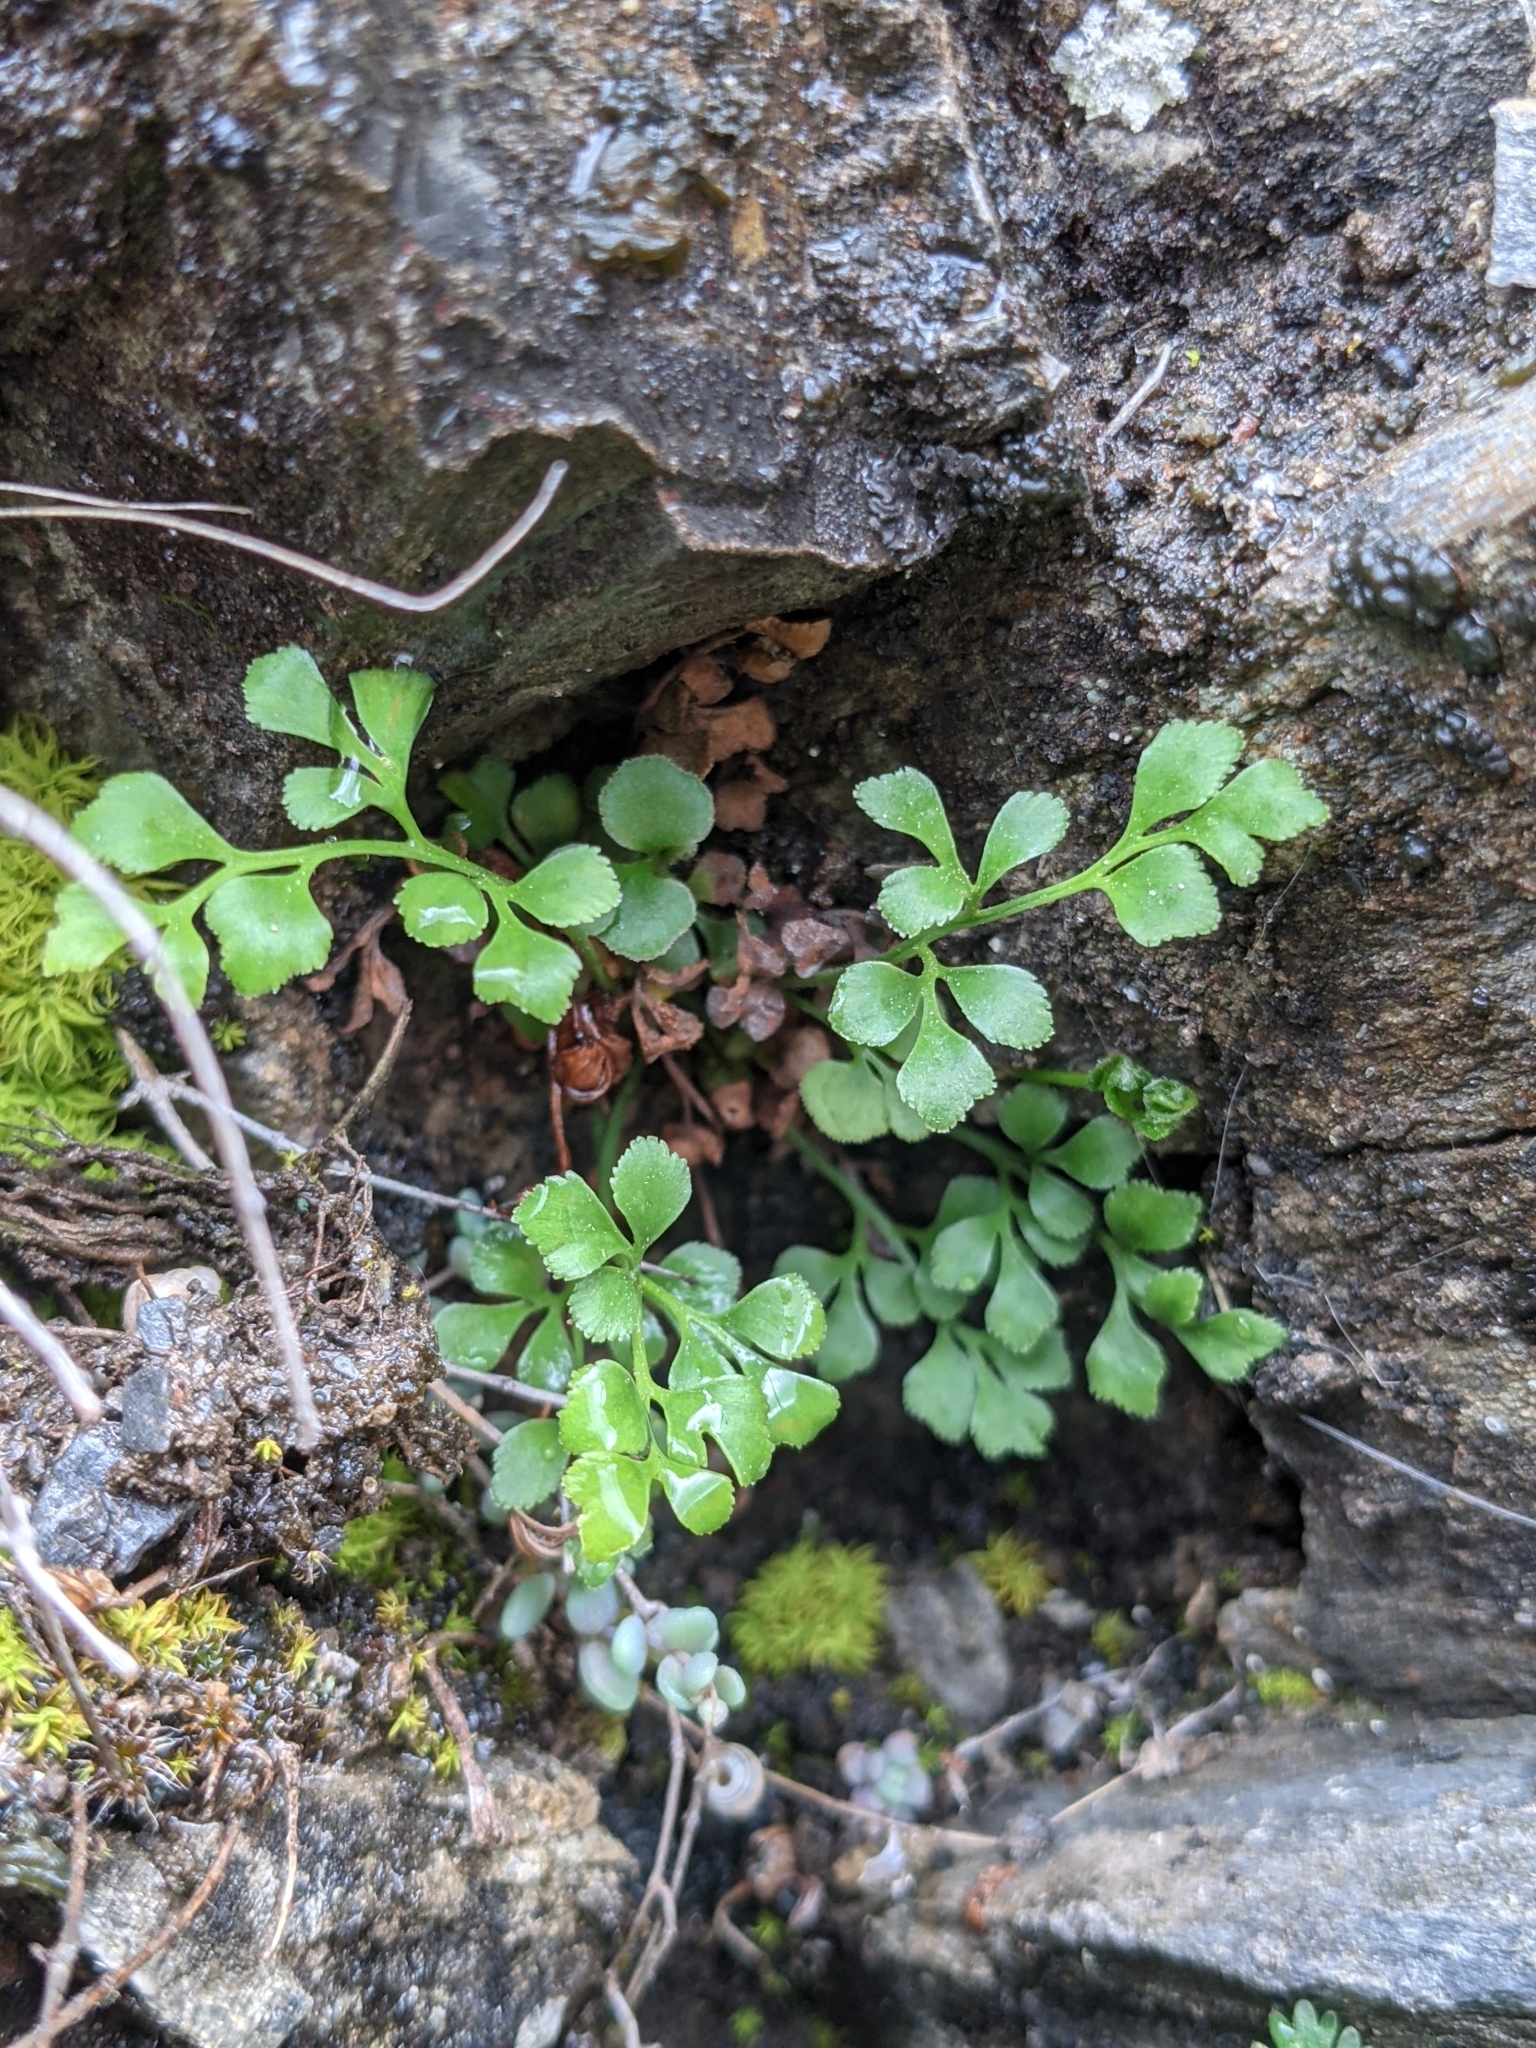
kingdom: Plantae
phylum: Tracheophyta
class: Polypodiopsida
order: Polypodiales
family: Aspleniaceae
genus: Asplenium
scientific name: Asplenium ruta-muraria
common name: Wall-rue
